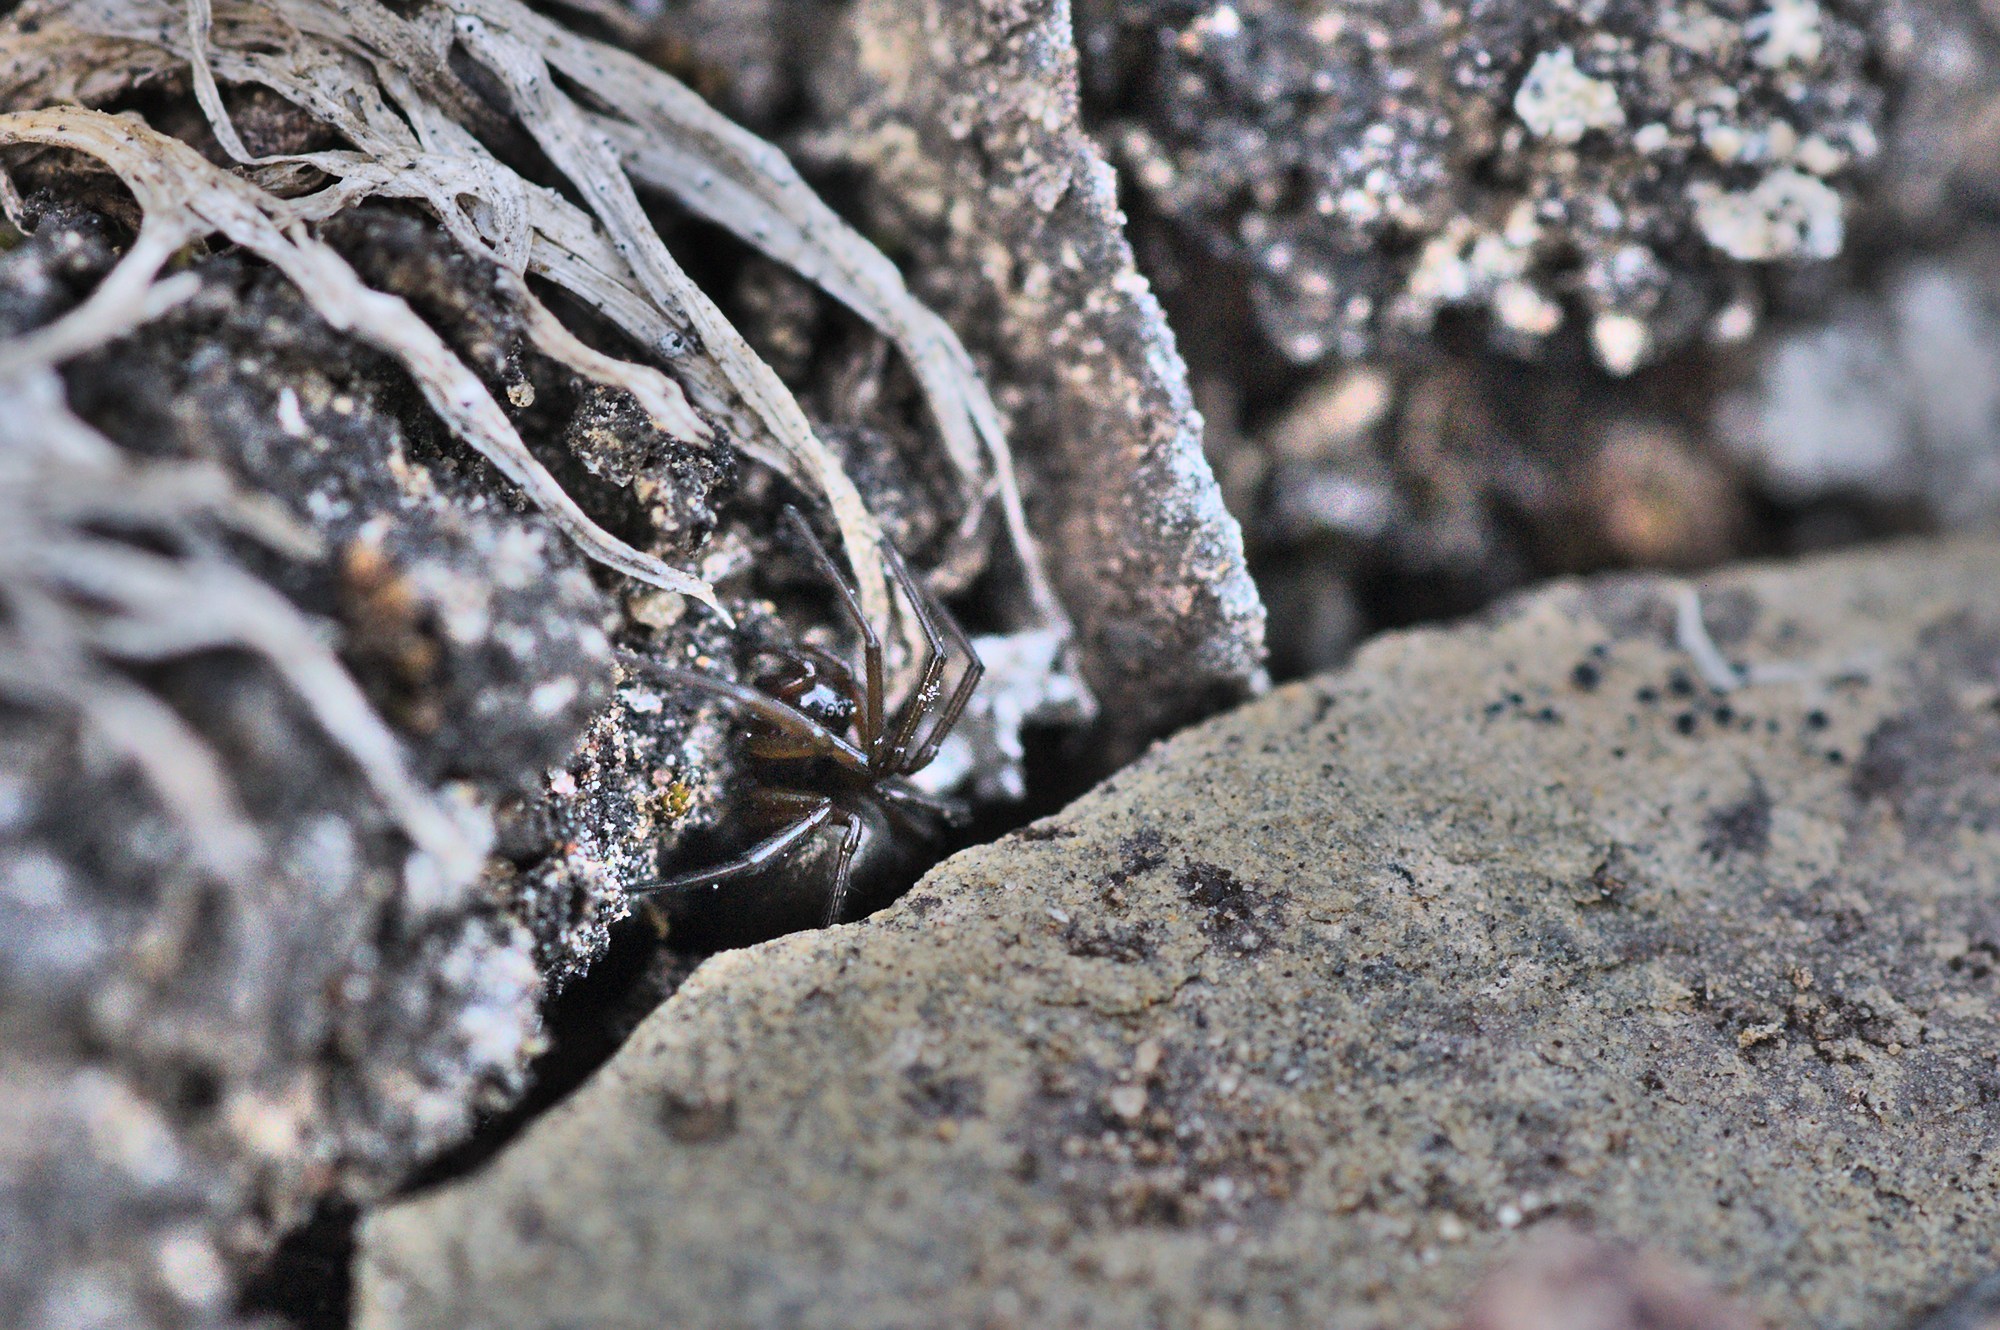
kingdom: Animalia
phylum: Arthropoda
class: Arachnida
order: Araneae
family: Linyphiidae
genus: Erigone
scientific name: Erigone psychrophila
